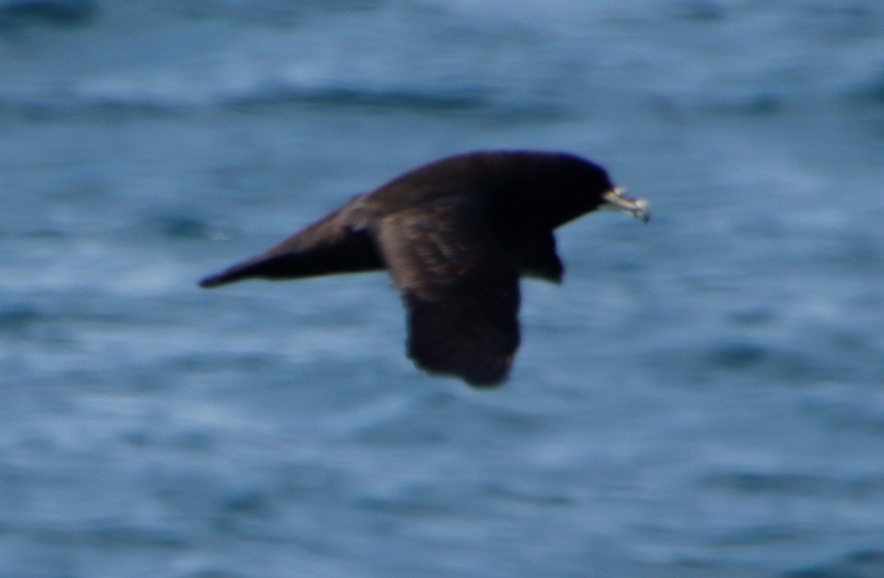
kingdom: Animalia
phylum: Chordata
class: Aves
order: Procellariiformes
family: Procellariidae
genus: Procellaria
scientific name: Procellaria aequinoctialis
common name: White-chinned petrel
